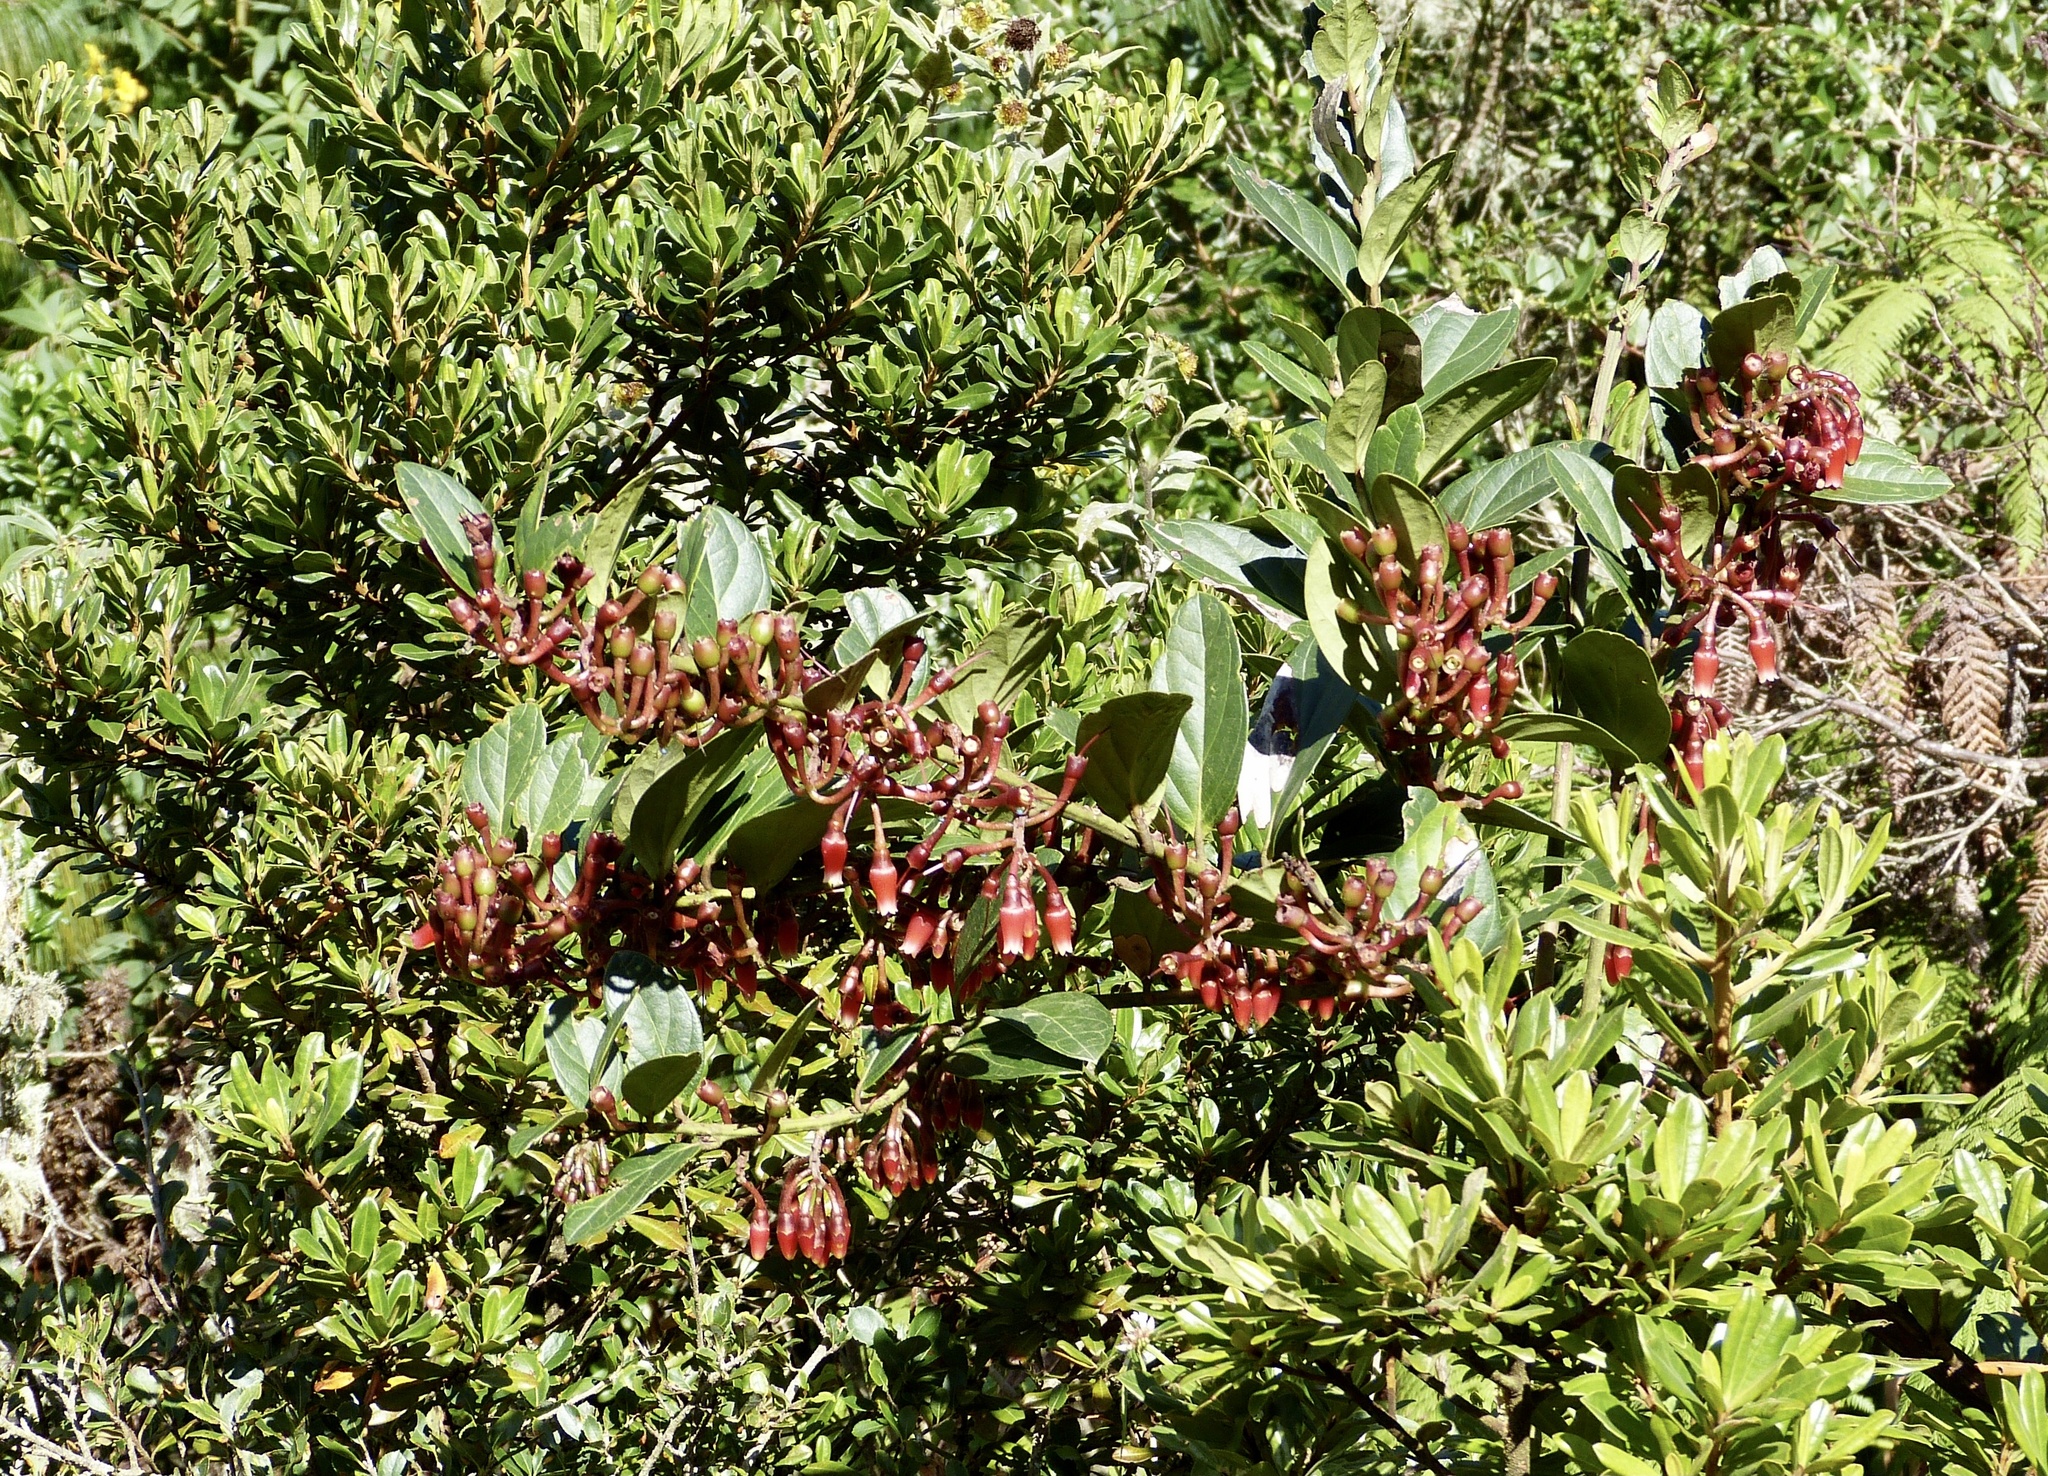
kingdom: Plantae
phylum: Tracheophyta
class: Magnoliopsida
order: Ericales
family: Ericaceae
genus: Macleania
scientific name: Macleania robusta
